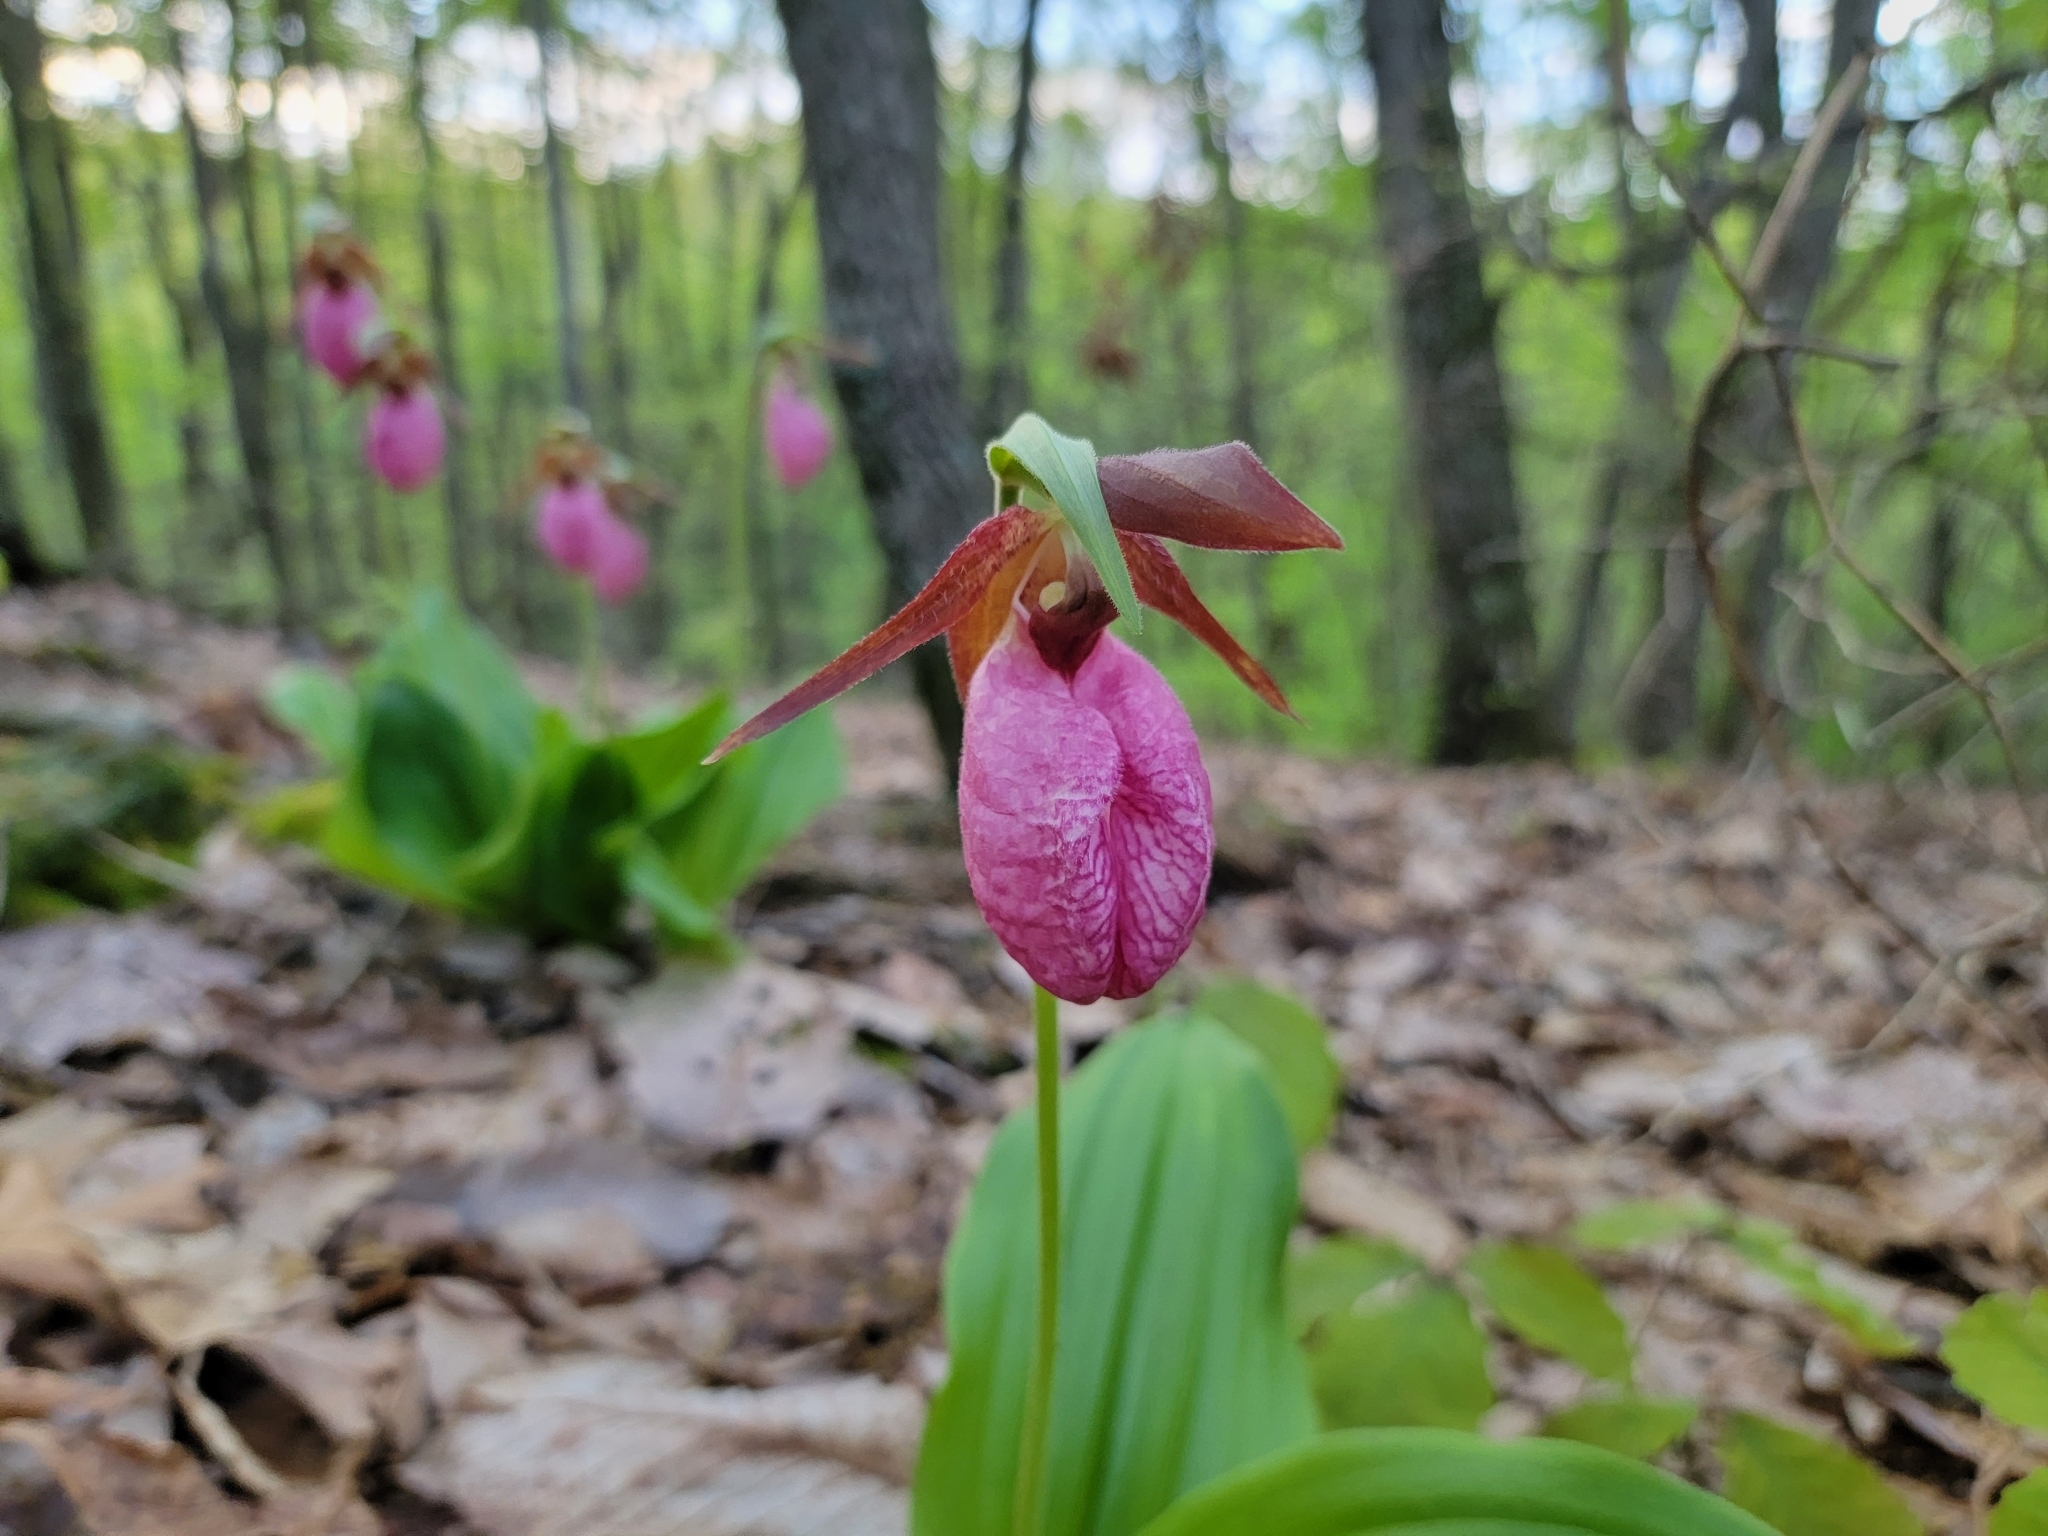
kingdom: Plantae
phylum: Tracheophyta
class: Liliopsida
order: Asparagales
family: Orchidaceae
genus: Cypripedium
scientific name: Cypripedium acaule
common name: Pink lady's-slipper
